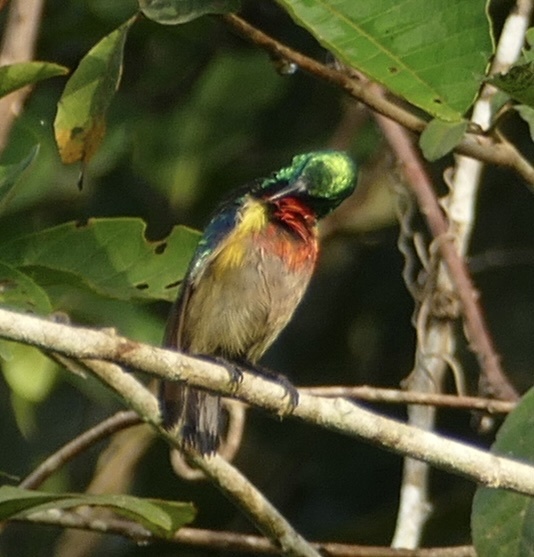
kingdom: Animalia
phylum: Chordata
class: Aves
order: Passeriformes
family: Nectariniidae
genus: Cinnyris
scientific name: Cinnyris chloropygius
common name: Olive-bellied sunbird
